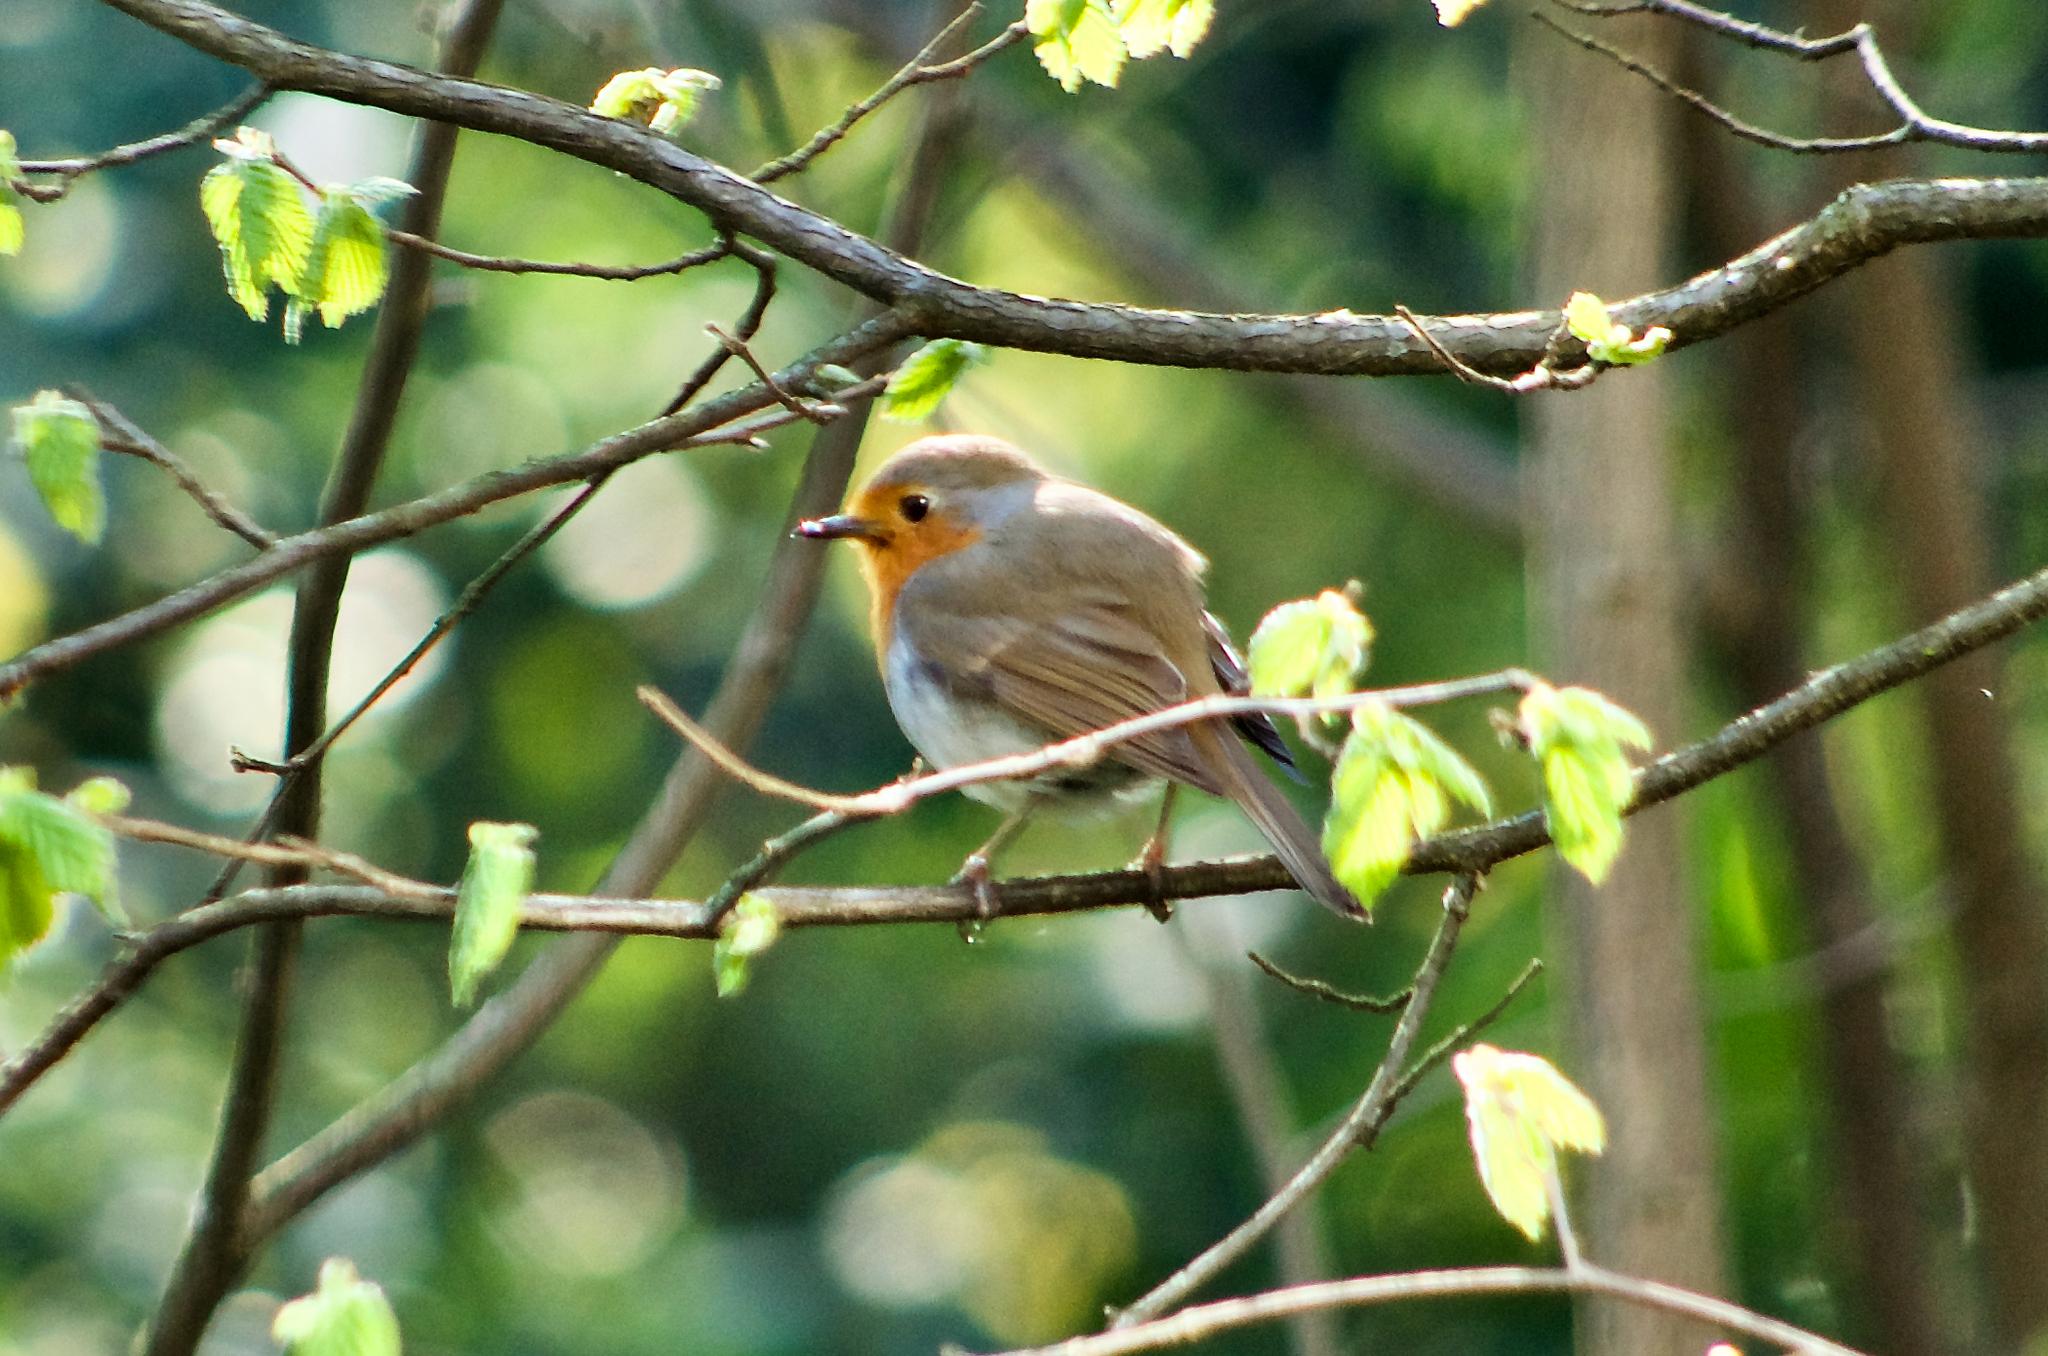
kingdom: Animalia
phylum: Chordata
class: Aves
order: Passeriformes
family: Muscicapidae
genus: Erithacus
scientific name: Erithacus rubecula
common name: European robin
